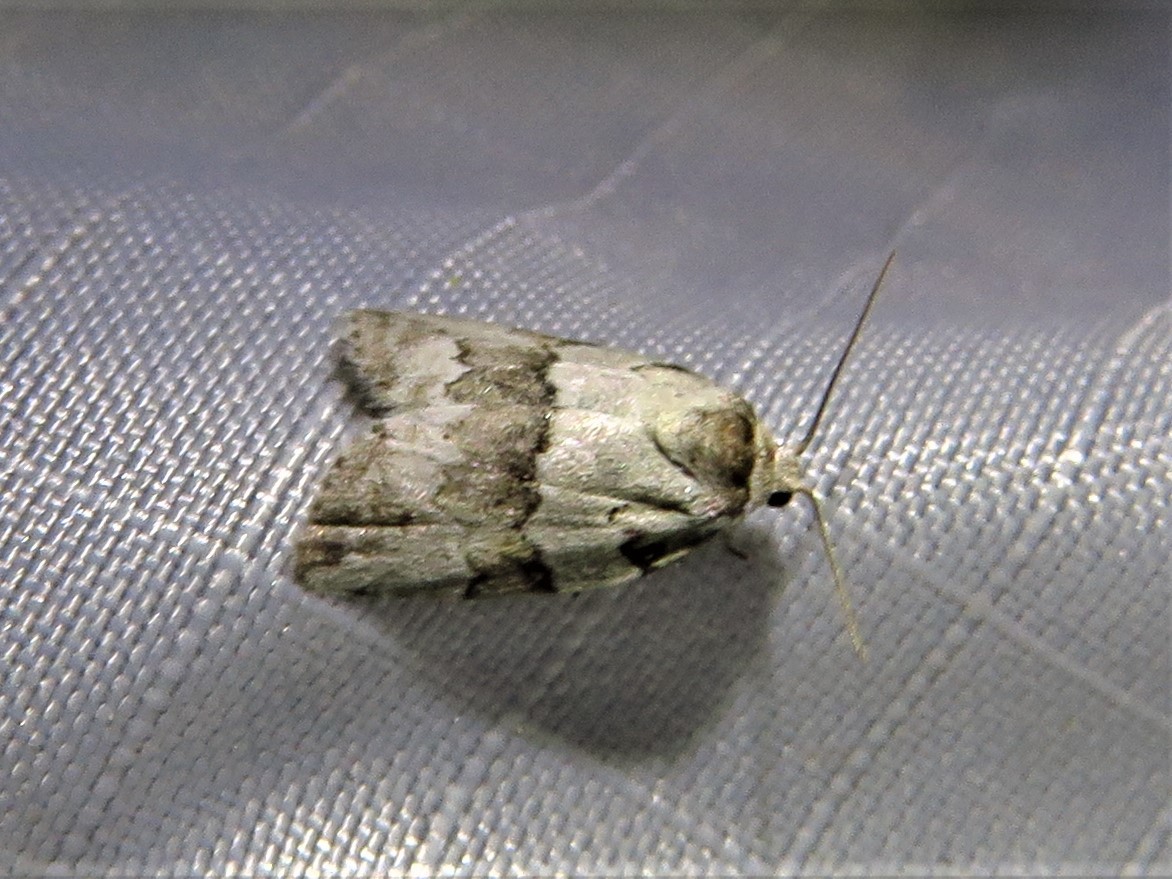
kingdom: Animalia
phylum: Arthropoda
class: Insecta
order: Lepidoptera
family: Nolidae
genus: Afrida
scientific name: Afrida ydatodes
